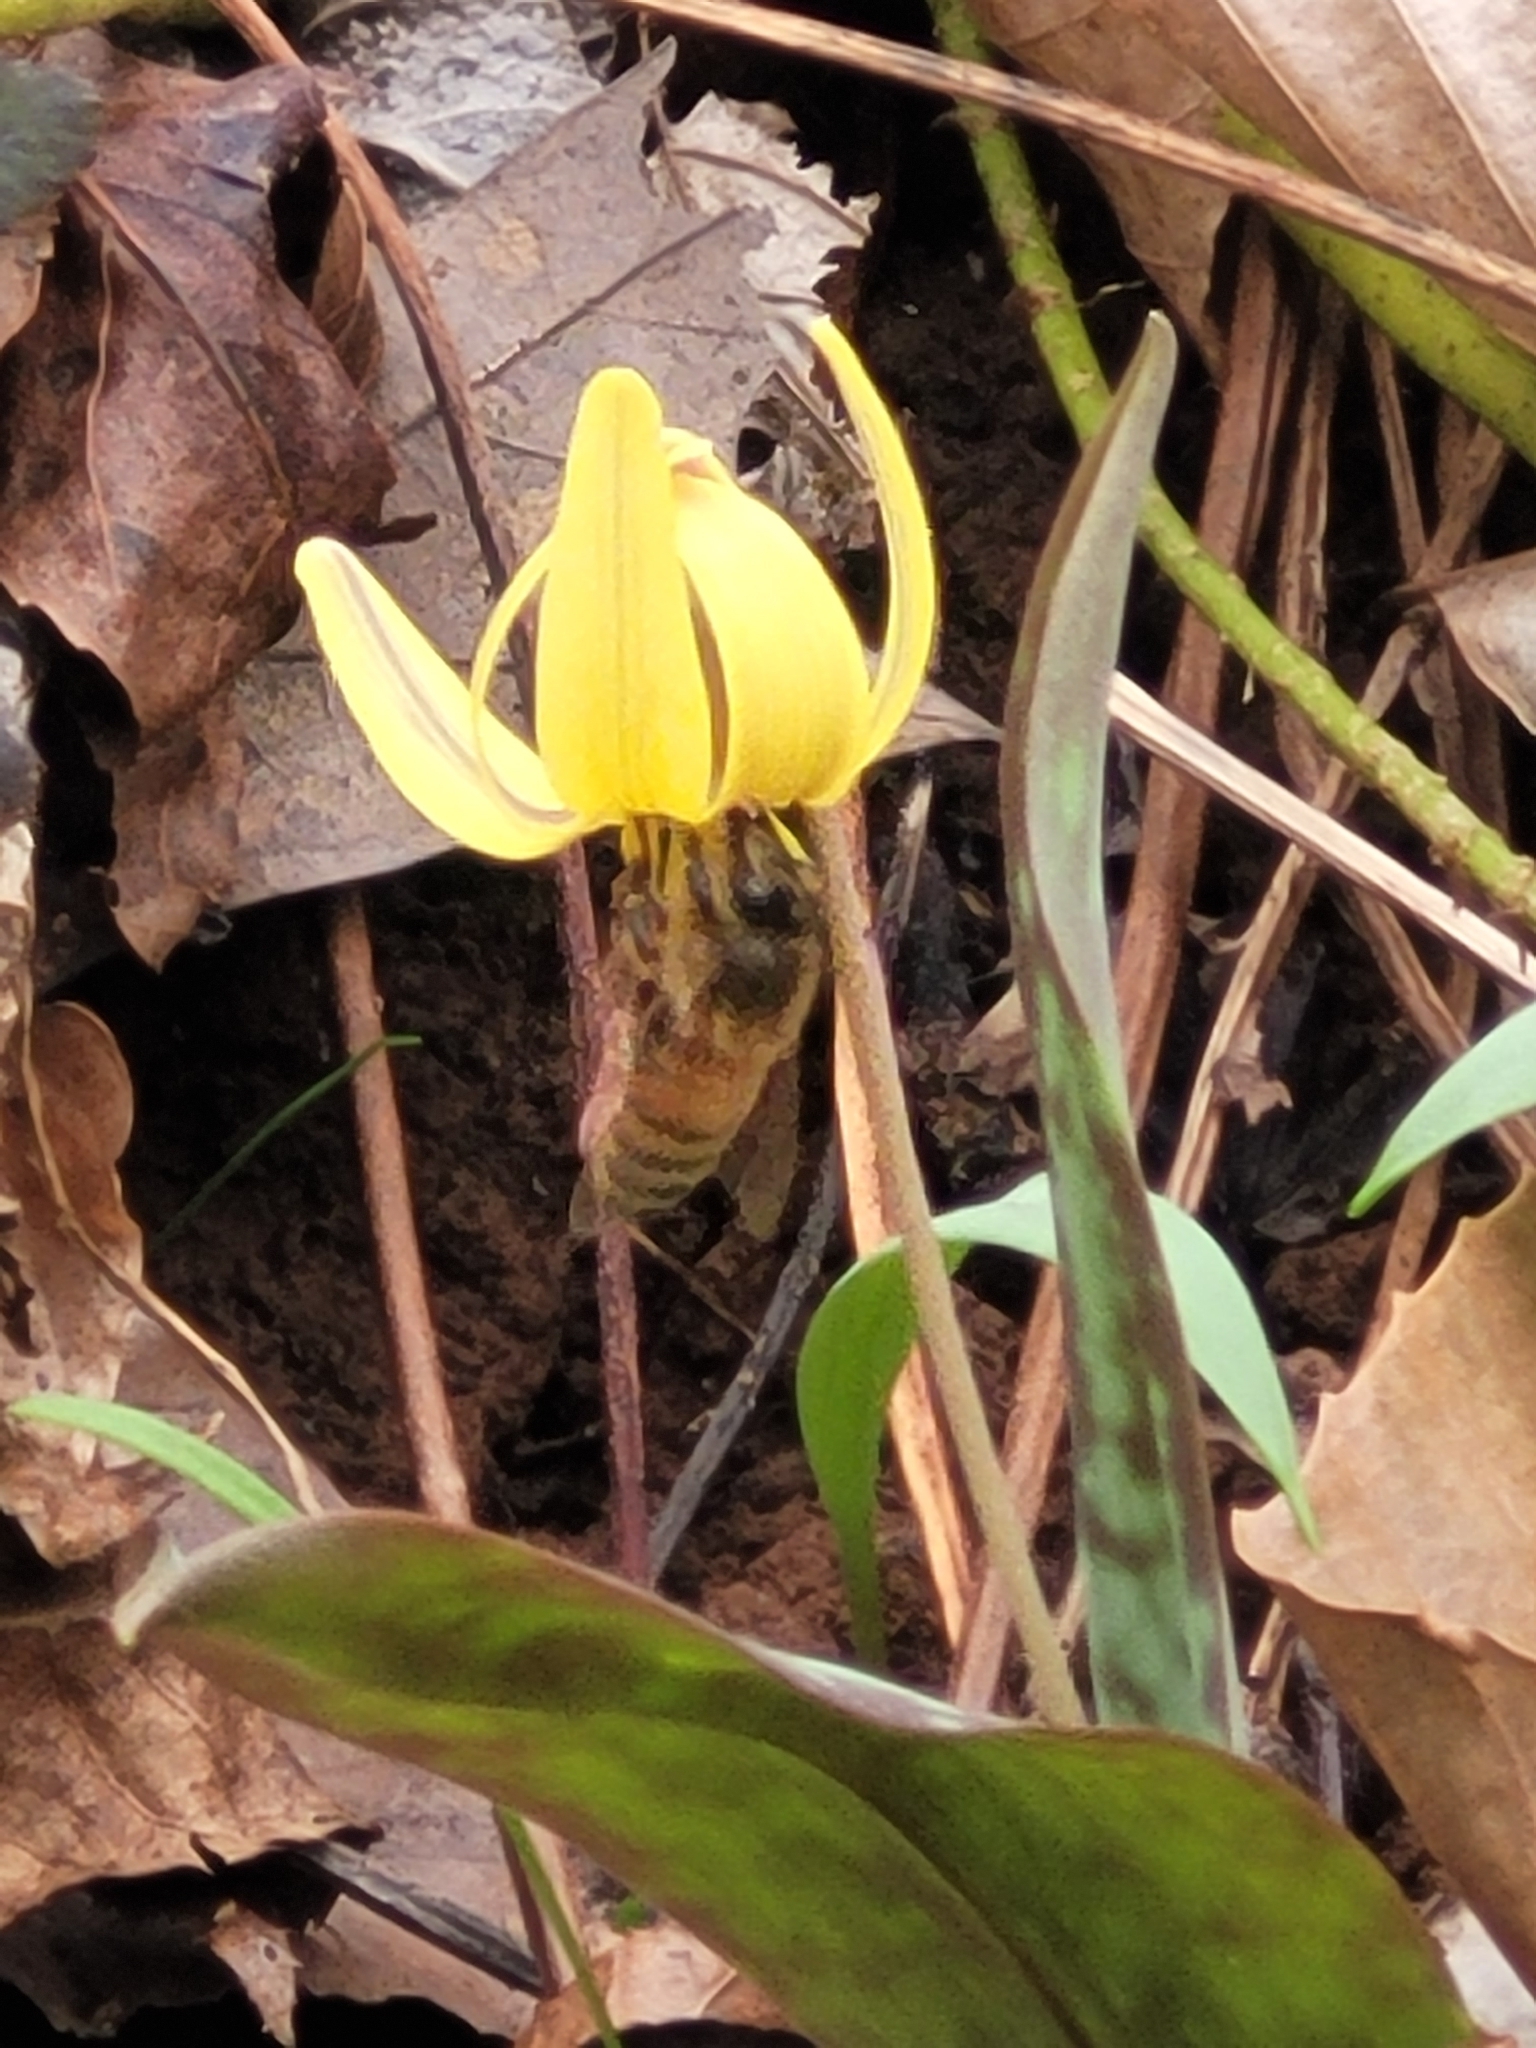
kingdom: Animalia
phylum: Arthropoda
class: Insecta
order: Hymenoptera
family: Apidae
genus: Apis
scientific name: Apis mellifera
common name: Honey bee
